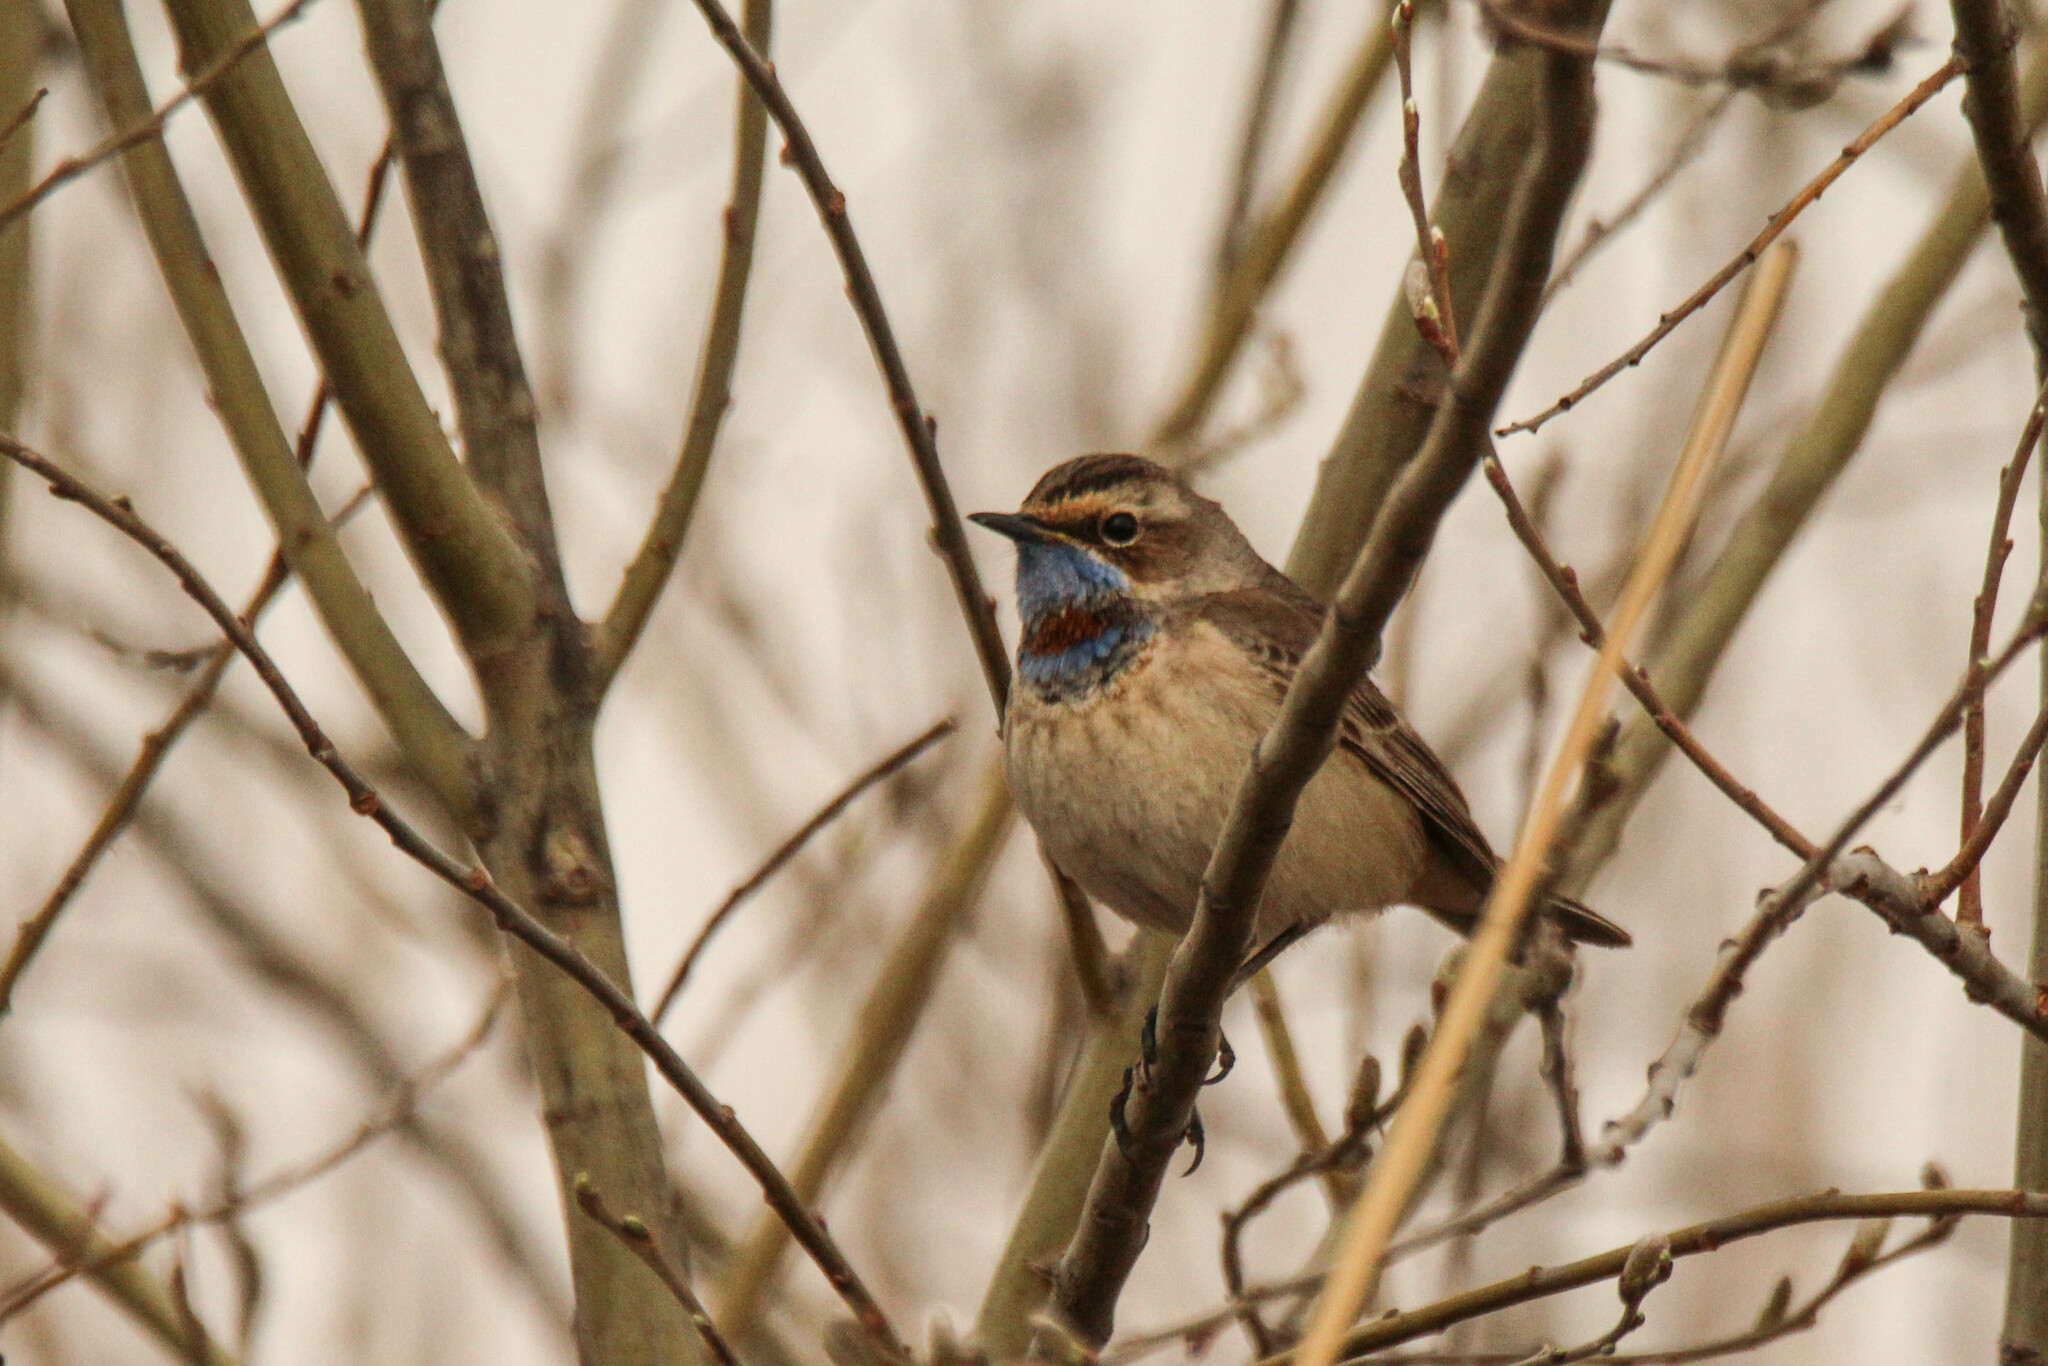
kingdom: Animalia
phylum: Chordata
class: Aves
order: Passeriformes
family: Muscicapidae
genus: Luscinia
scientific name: Luscinia svecica
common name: Bluethroat
